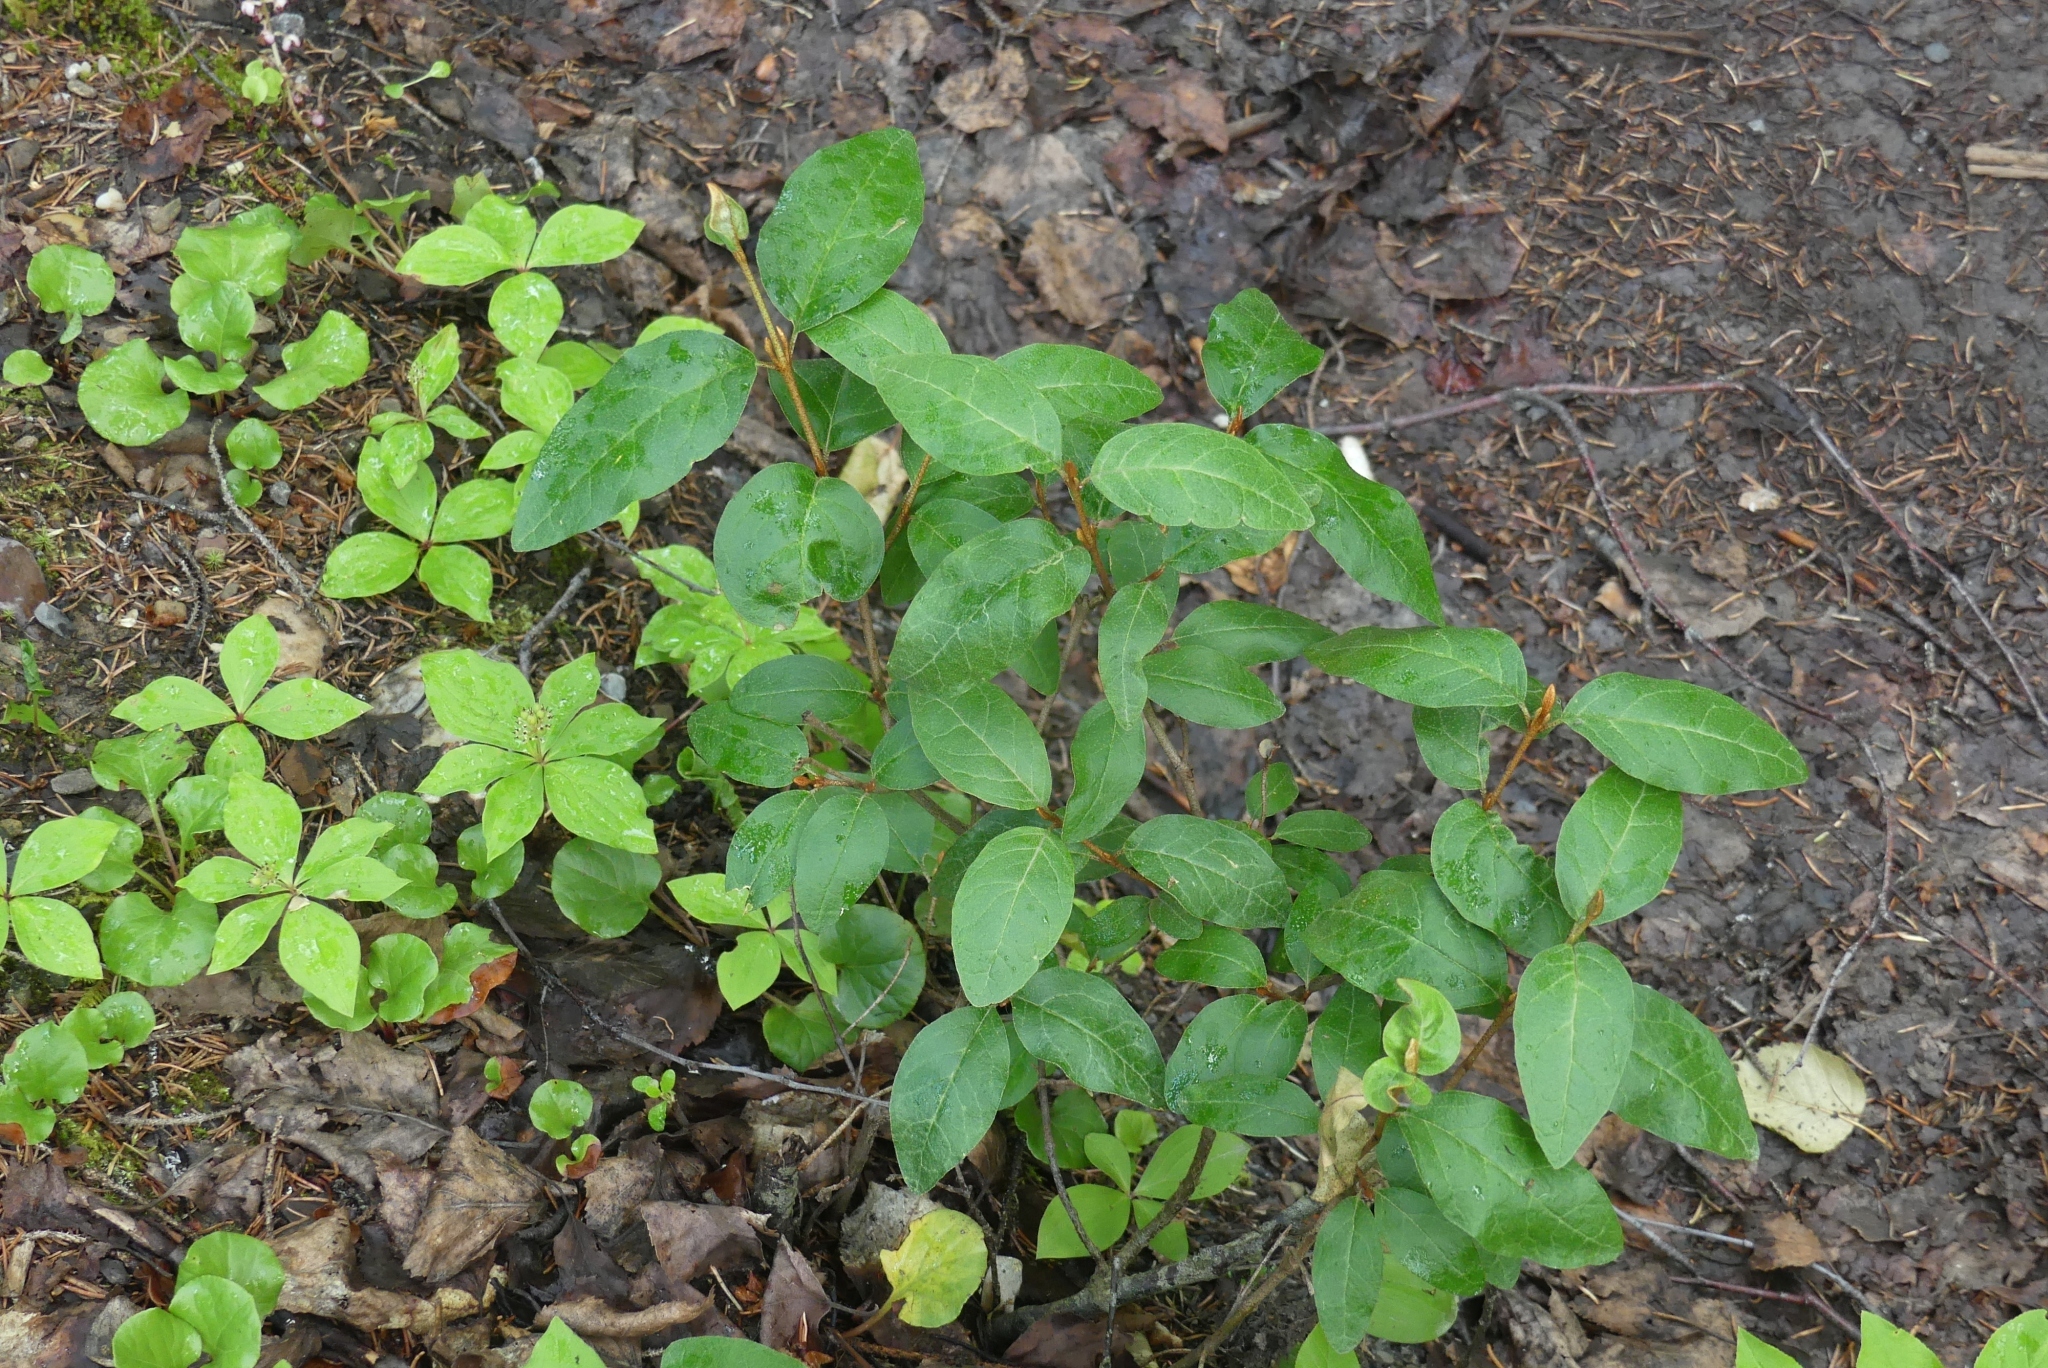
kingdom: Plantae
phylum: Tracheophyta
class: Magnoliopsida
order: Rosales
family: Elaeagnaceae
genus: Shepherdia
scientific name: Shepherdia canadensis
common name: Soapberry
